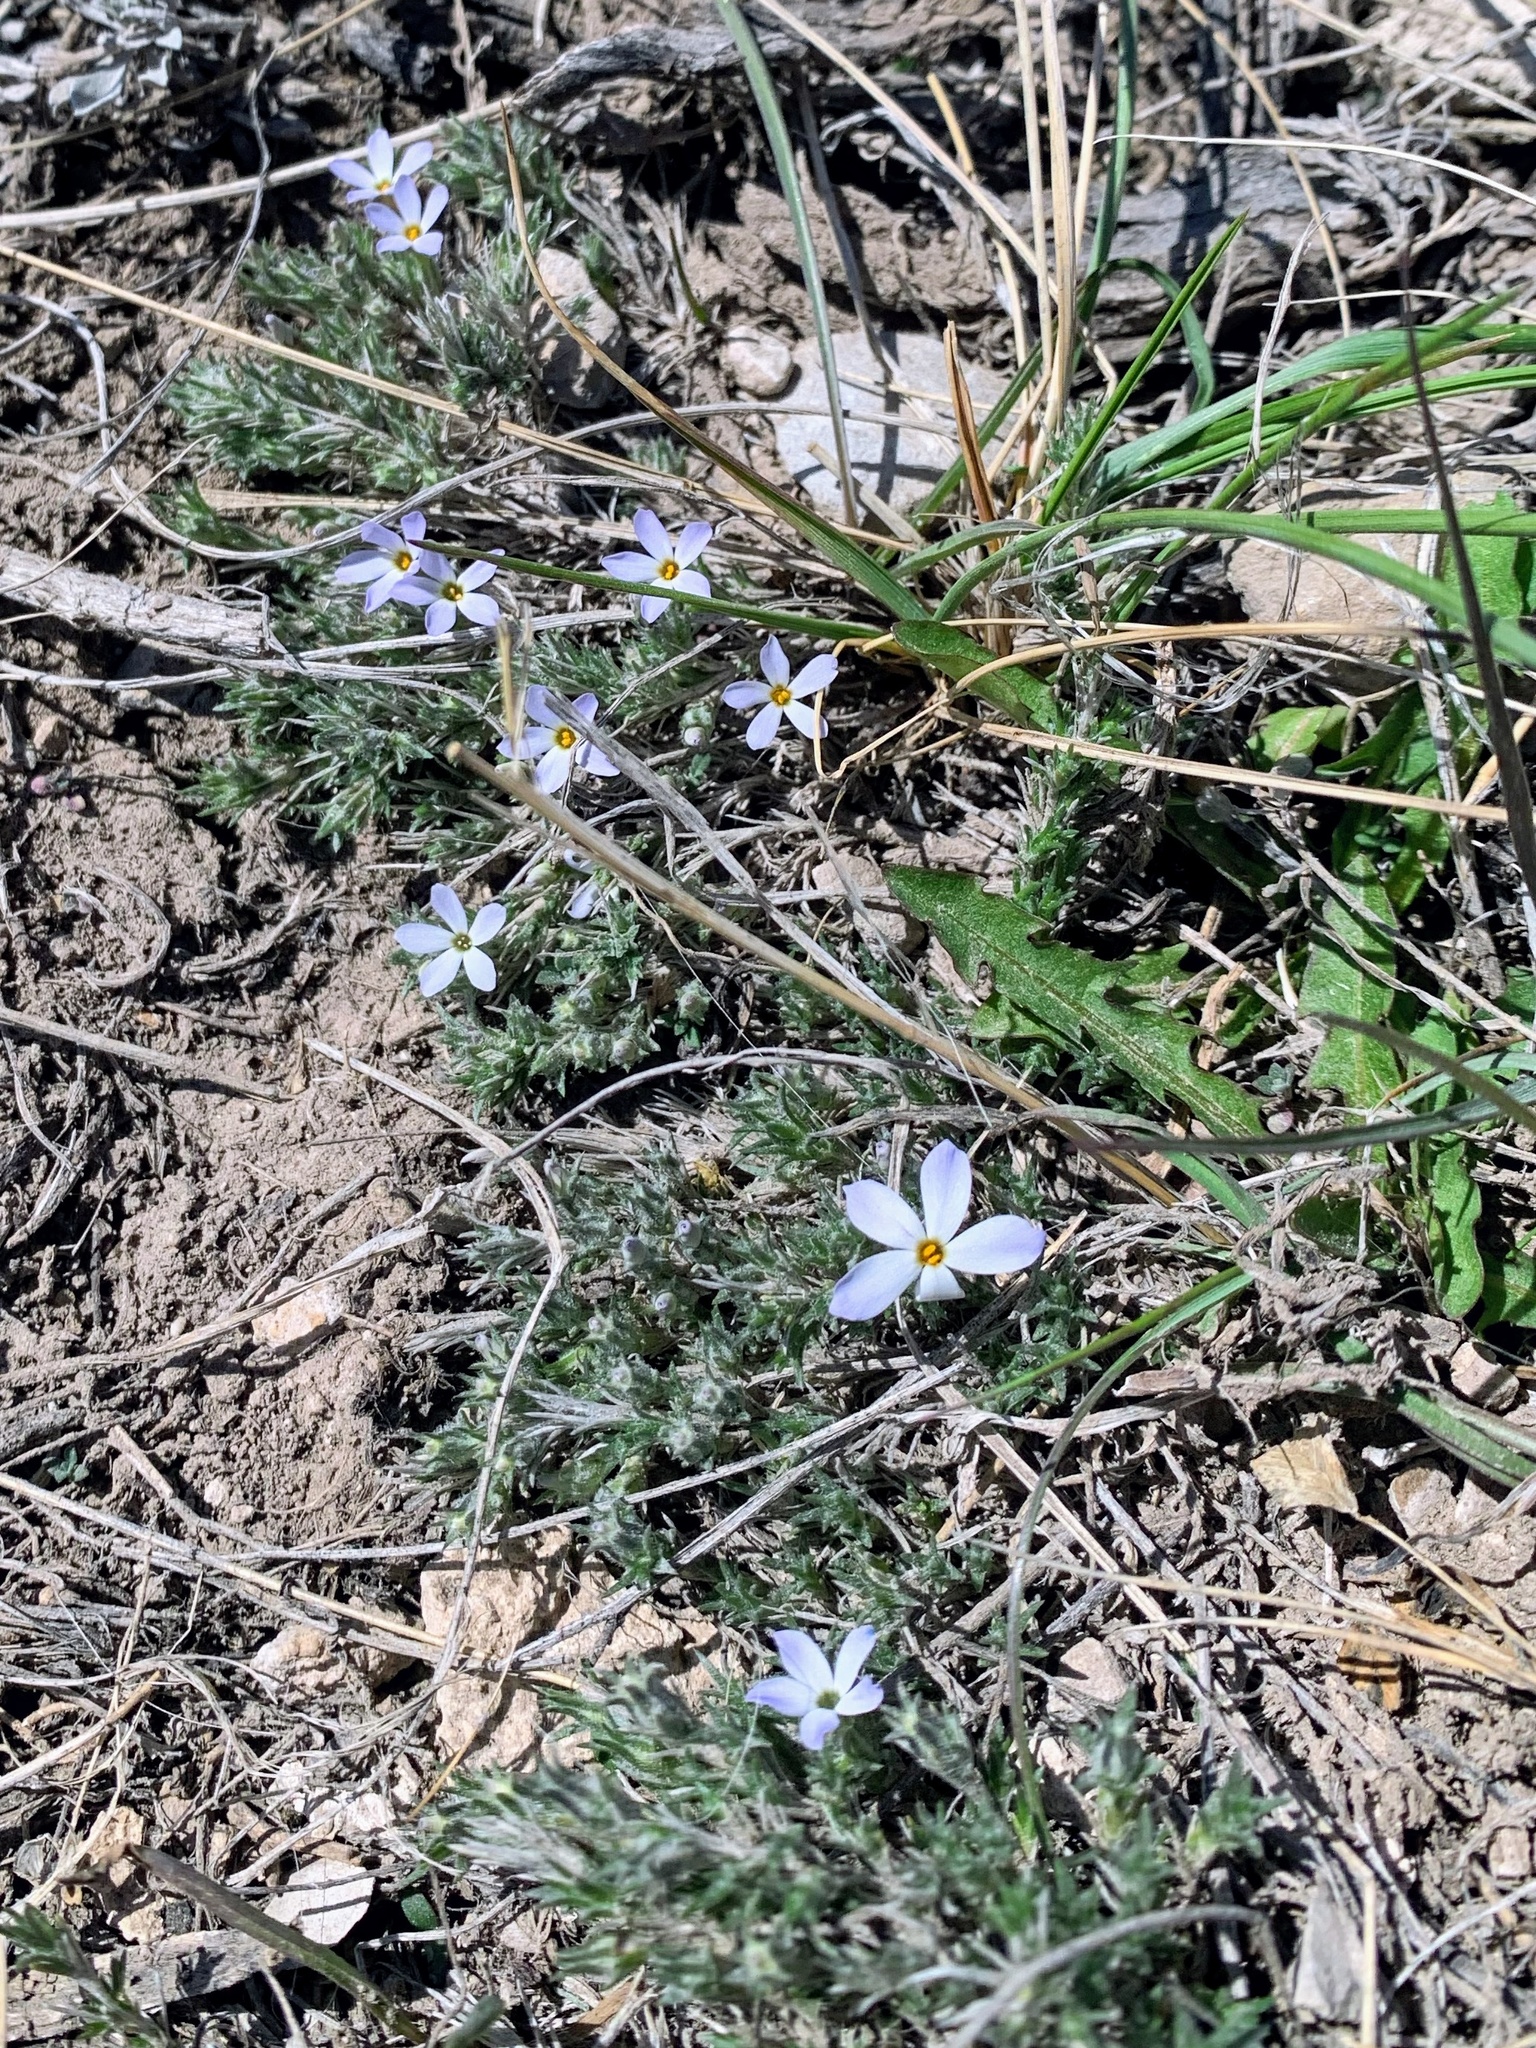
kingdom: Plantae
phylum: Tracheophyta
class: Magnoliopsida
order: Ericales
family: Polemoniaceae
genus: Phlox
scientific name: Phlox hoodii
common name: Moss phlox
